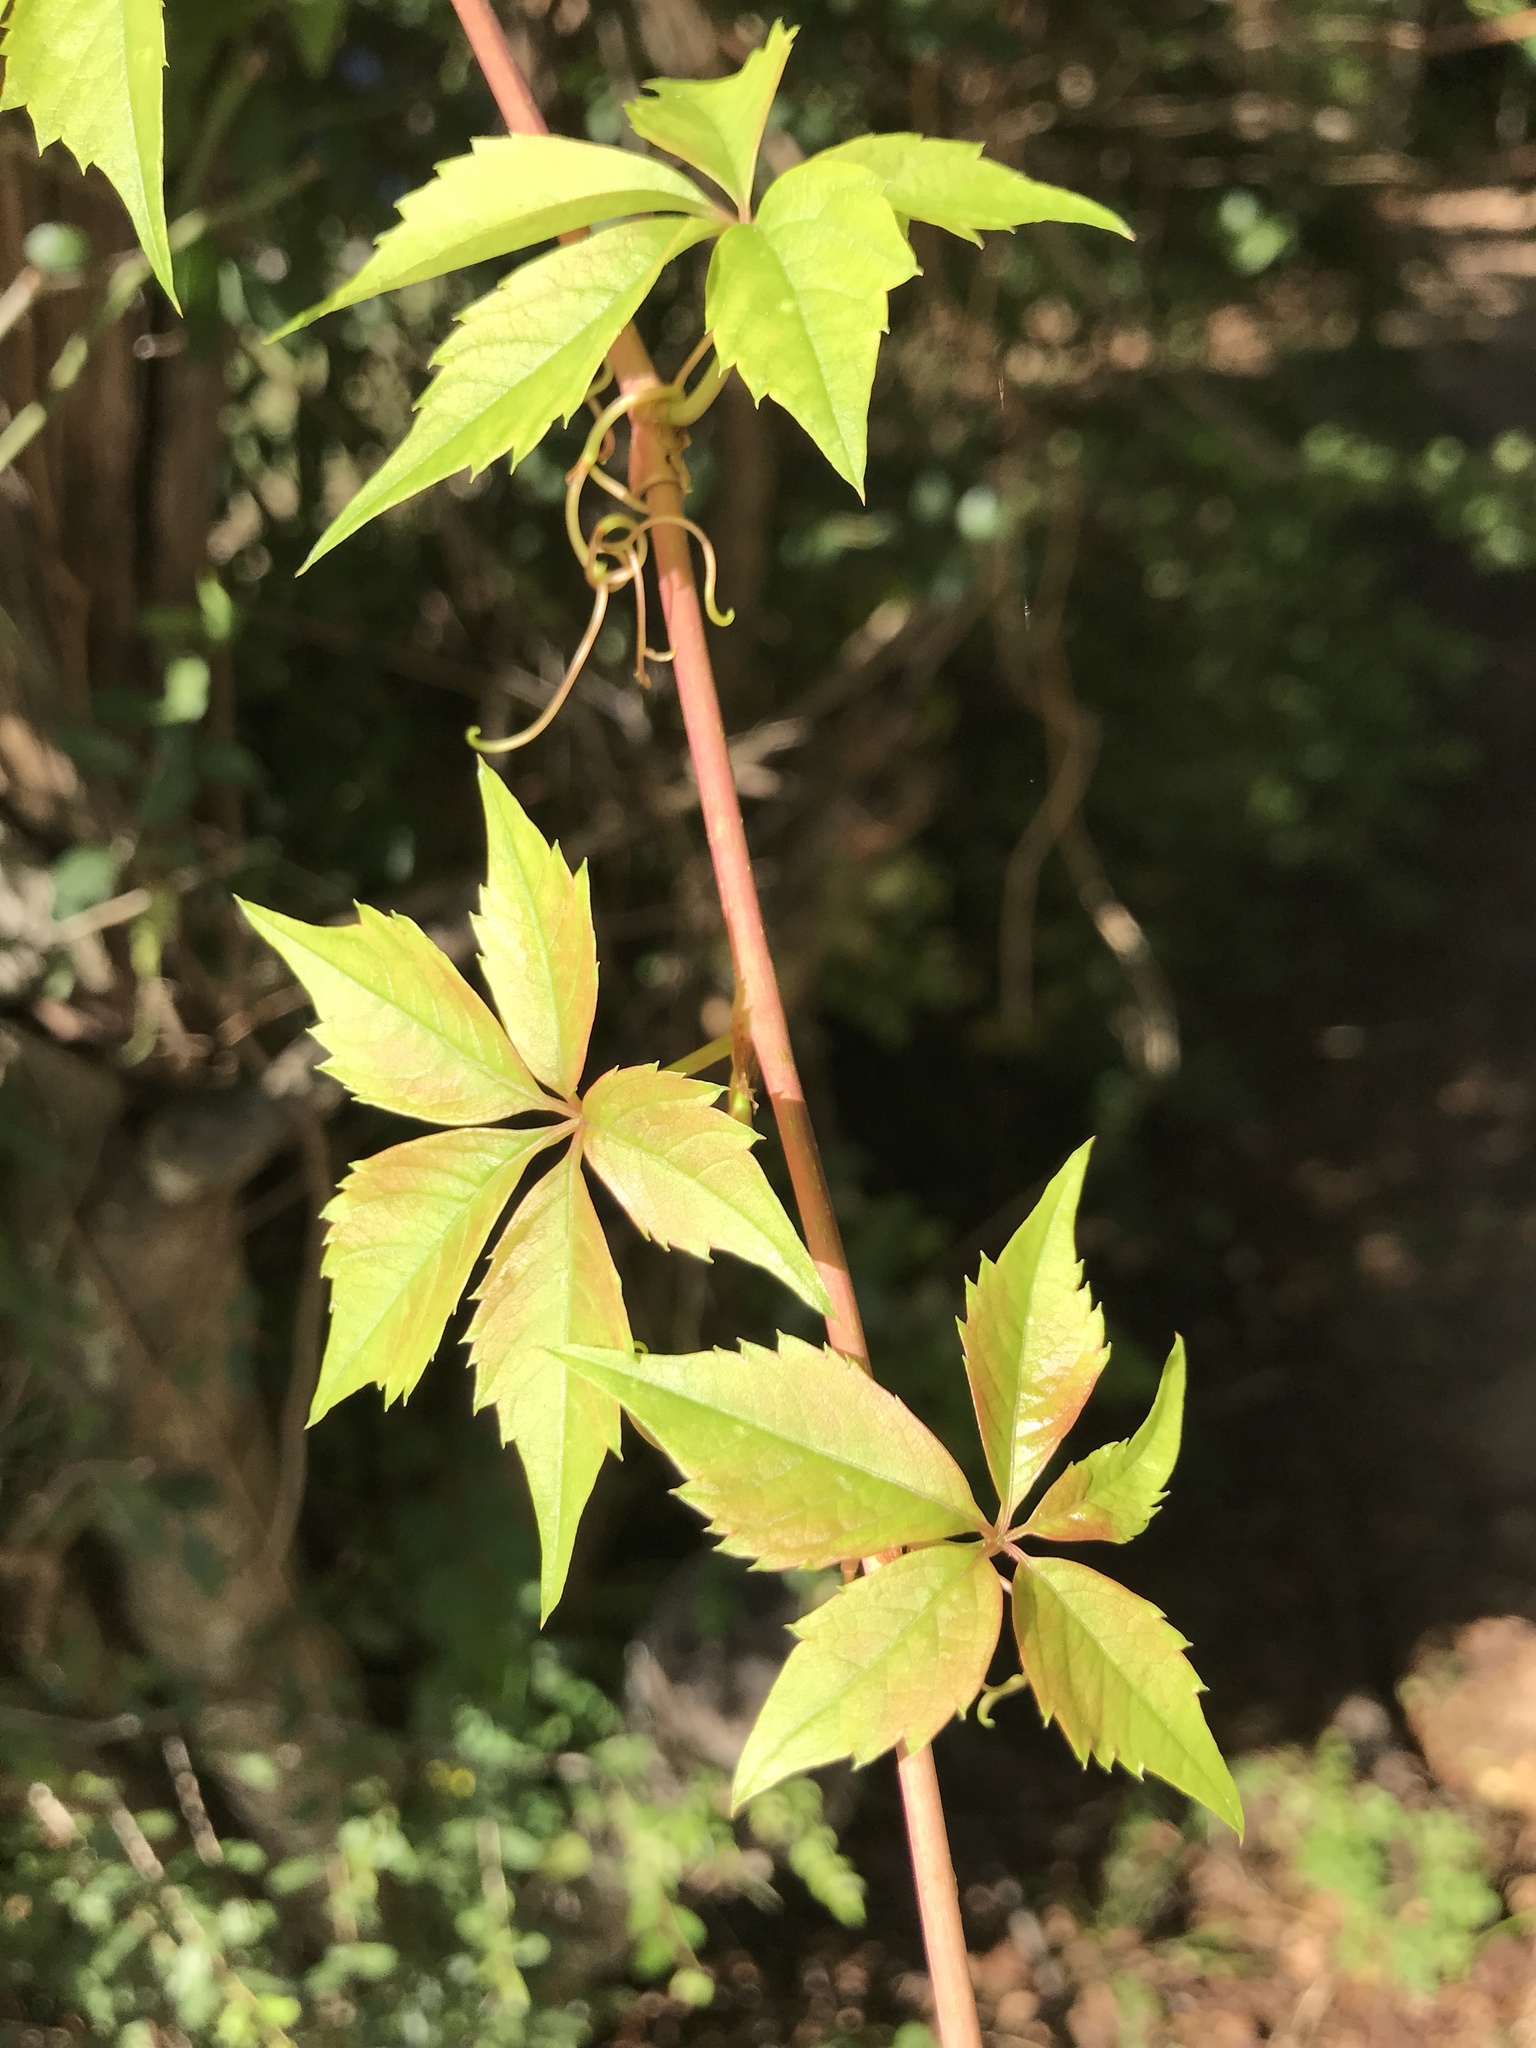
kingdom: Plantae
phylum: Tracheophyta
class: Magnoliopsida
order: Vitales
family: Vitaceae
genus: Parthenocissus
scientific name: Parthenocissus quinquefolia
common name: Virginia-creeper
